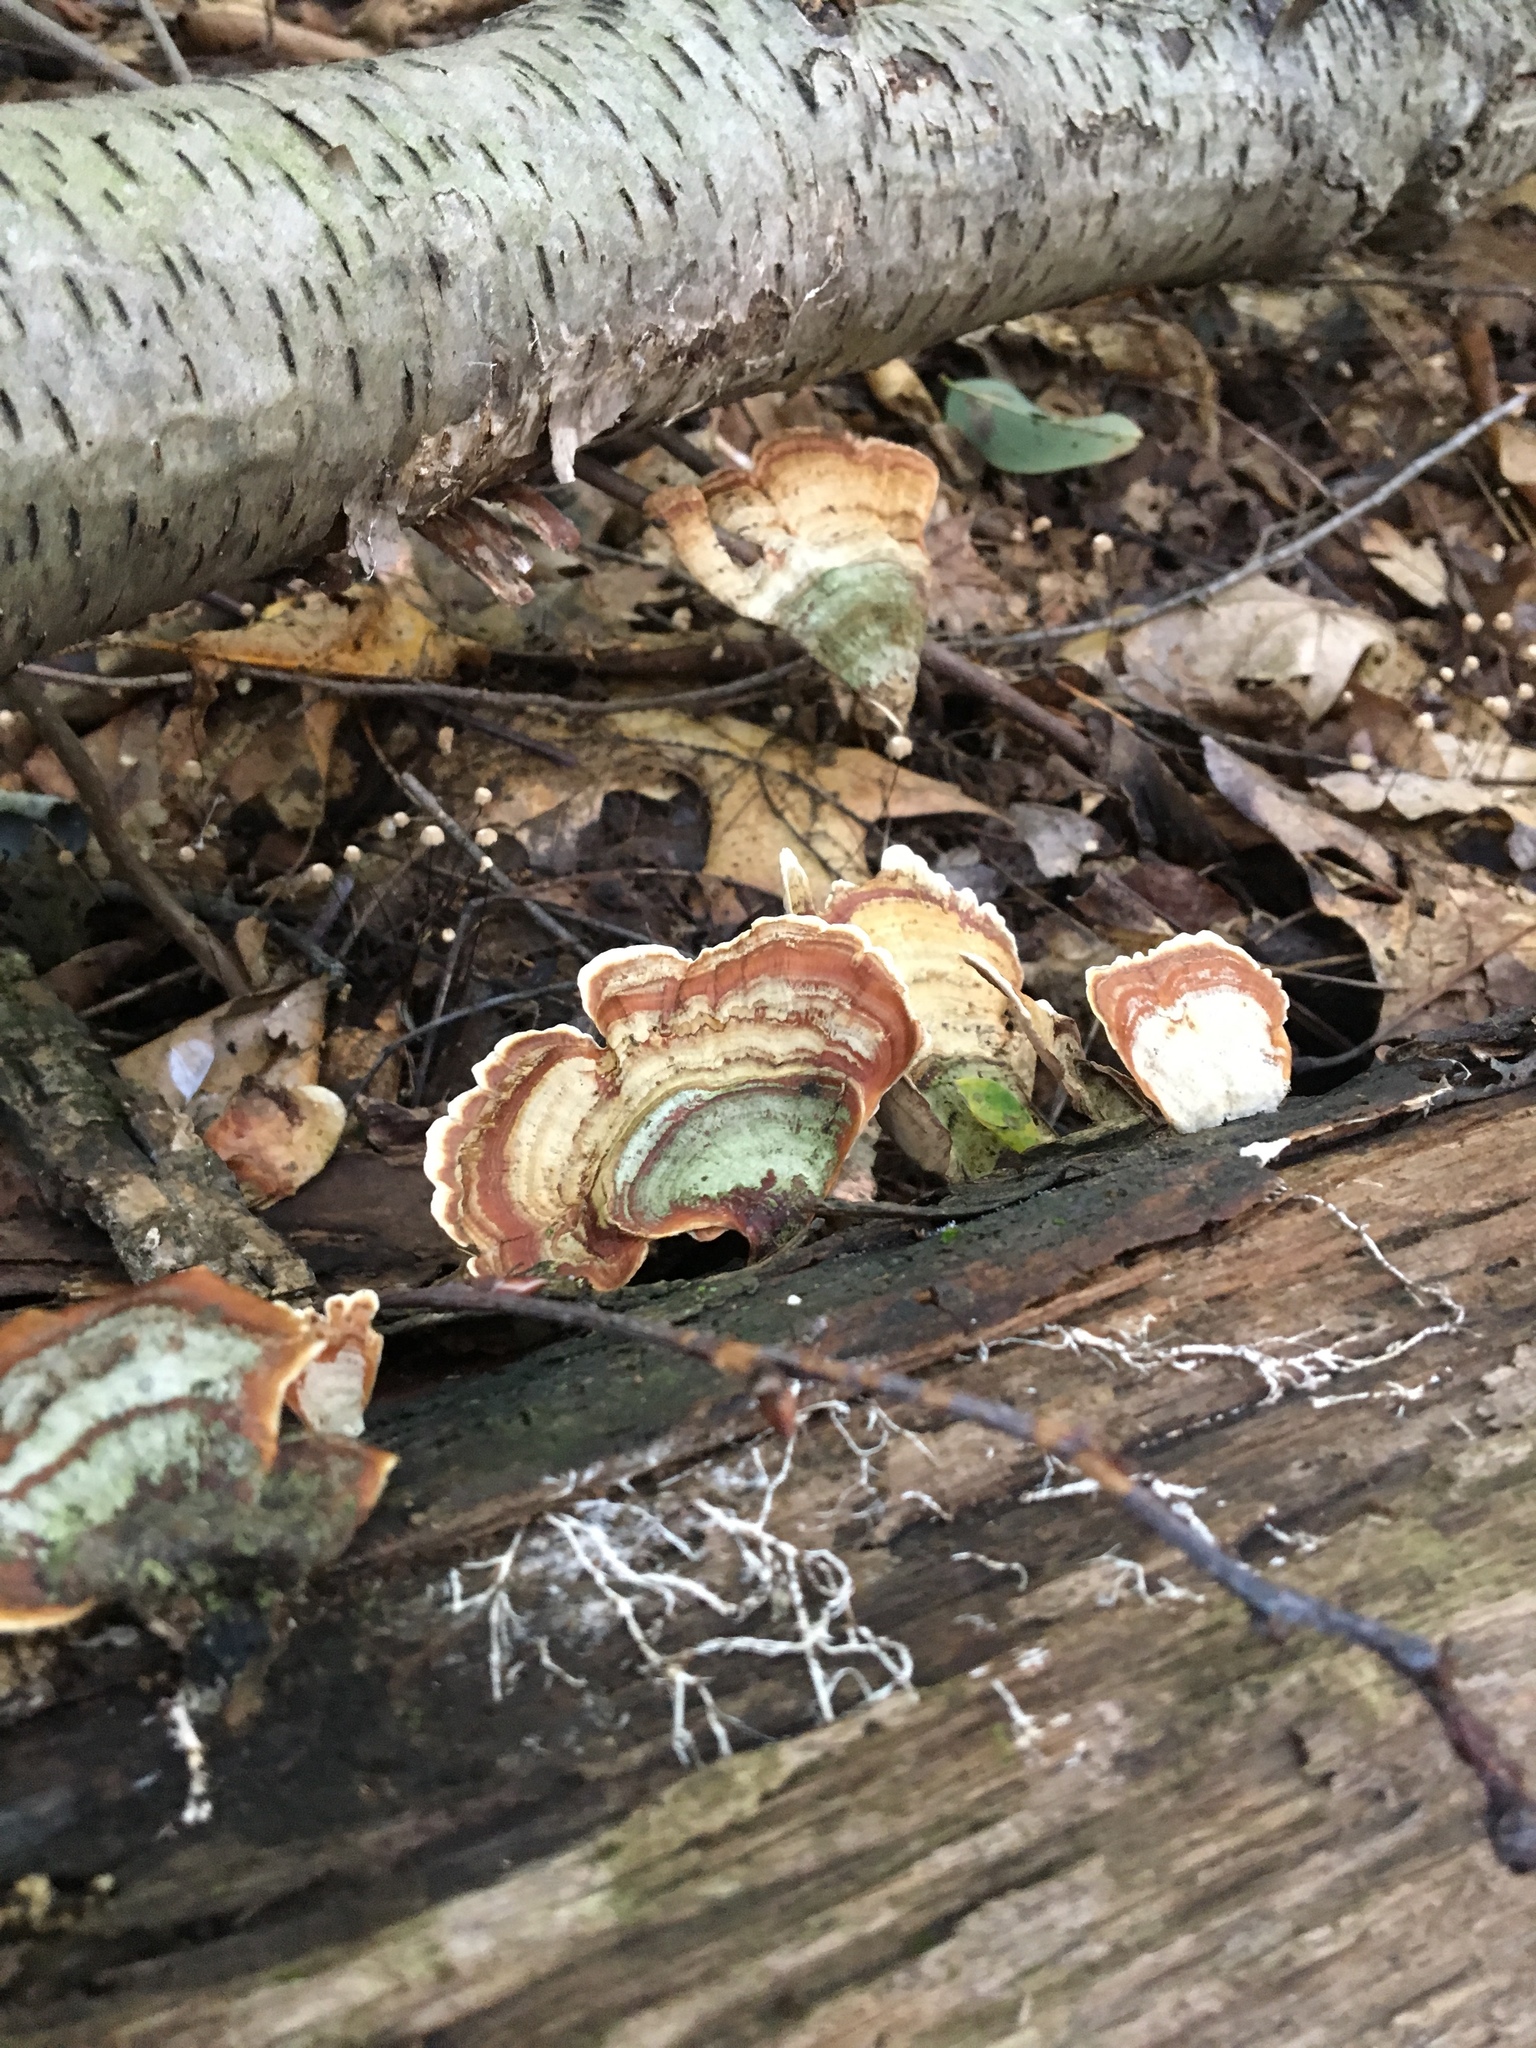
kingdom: Fungi
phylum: Basidiomycota
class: Agaricomycetes
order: Russulales
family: Stereaceae
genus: Stereum
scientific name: Stereum ostrea
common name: False turkeytail
